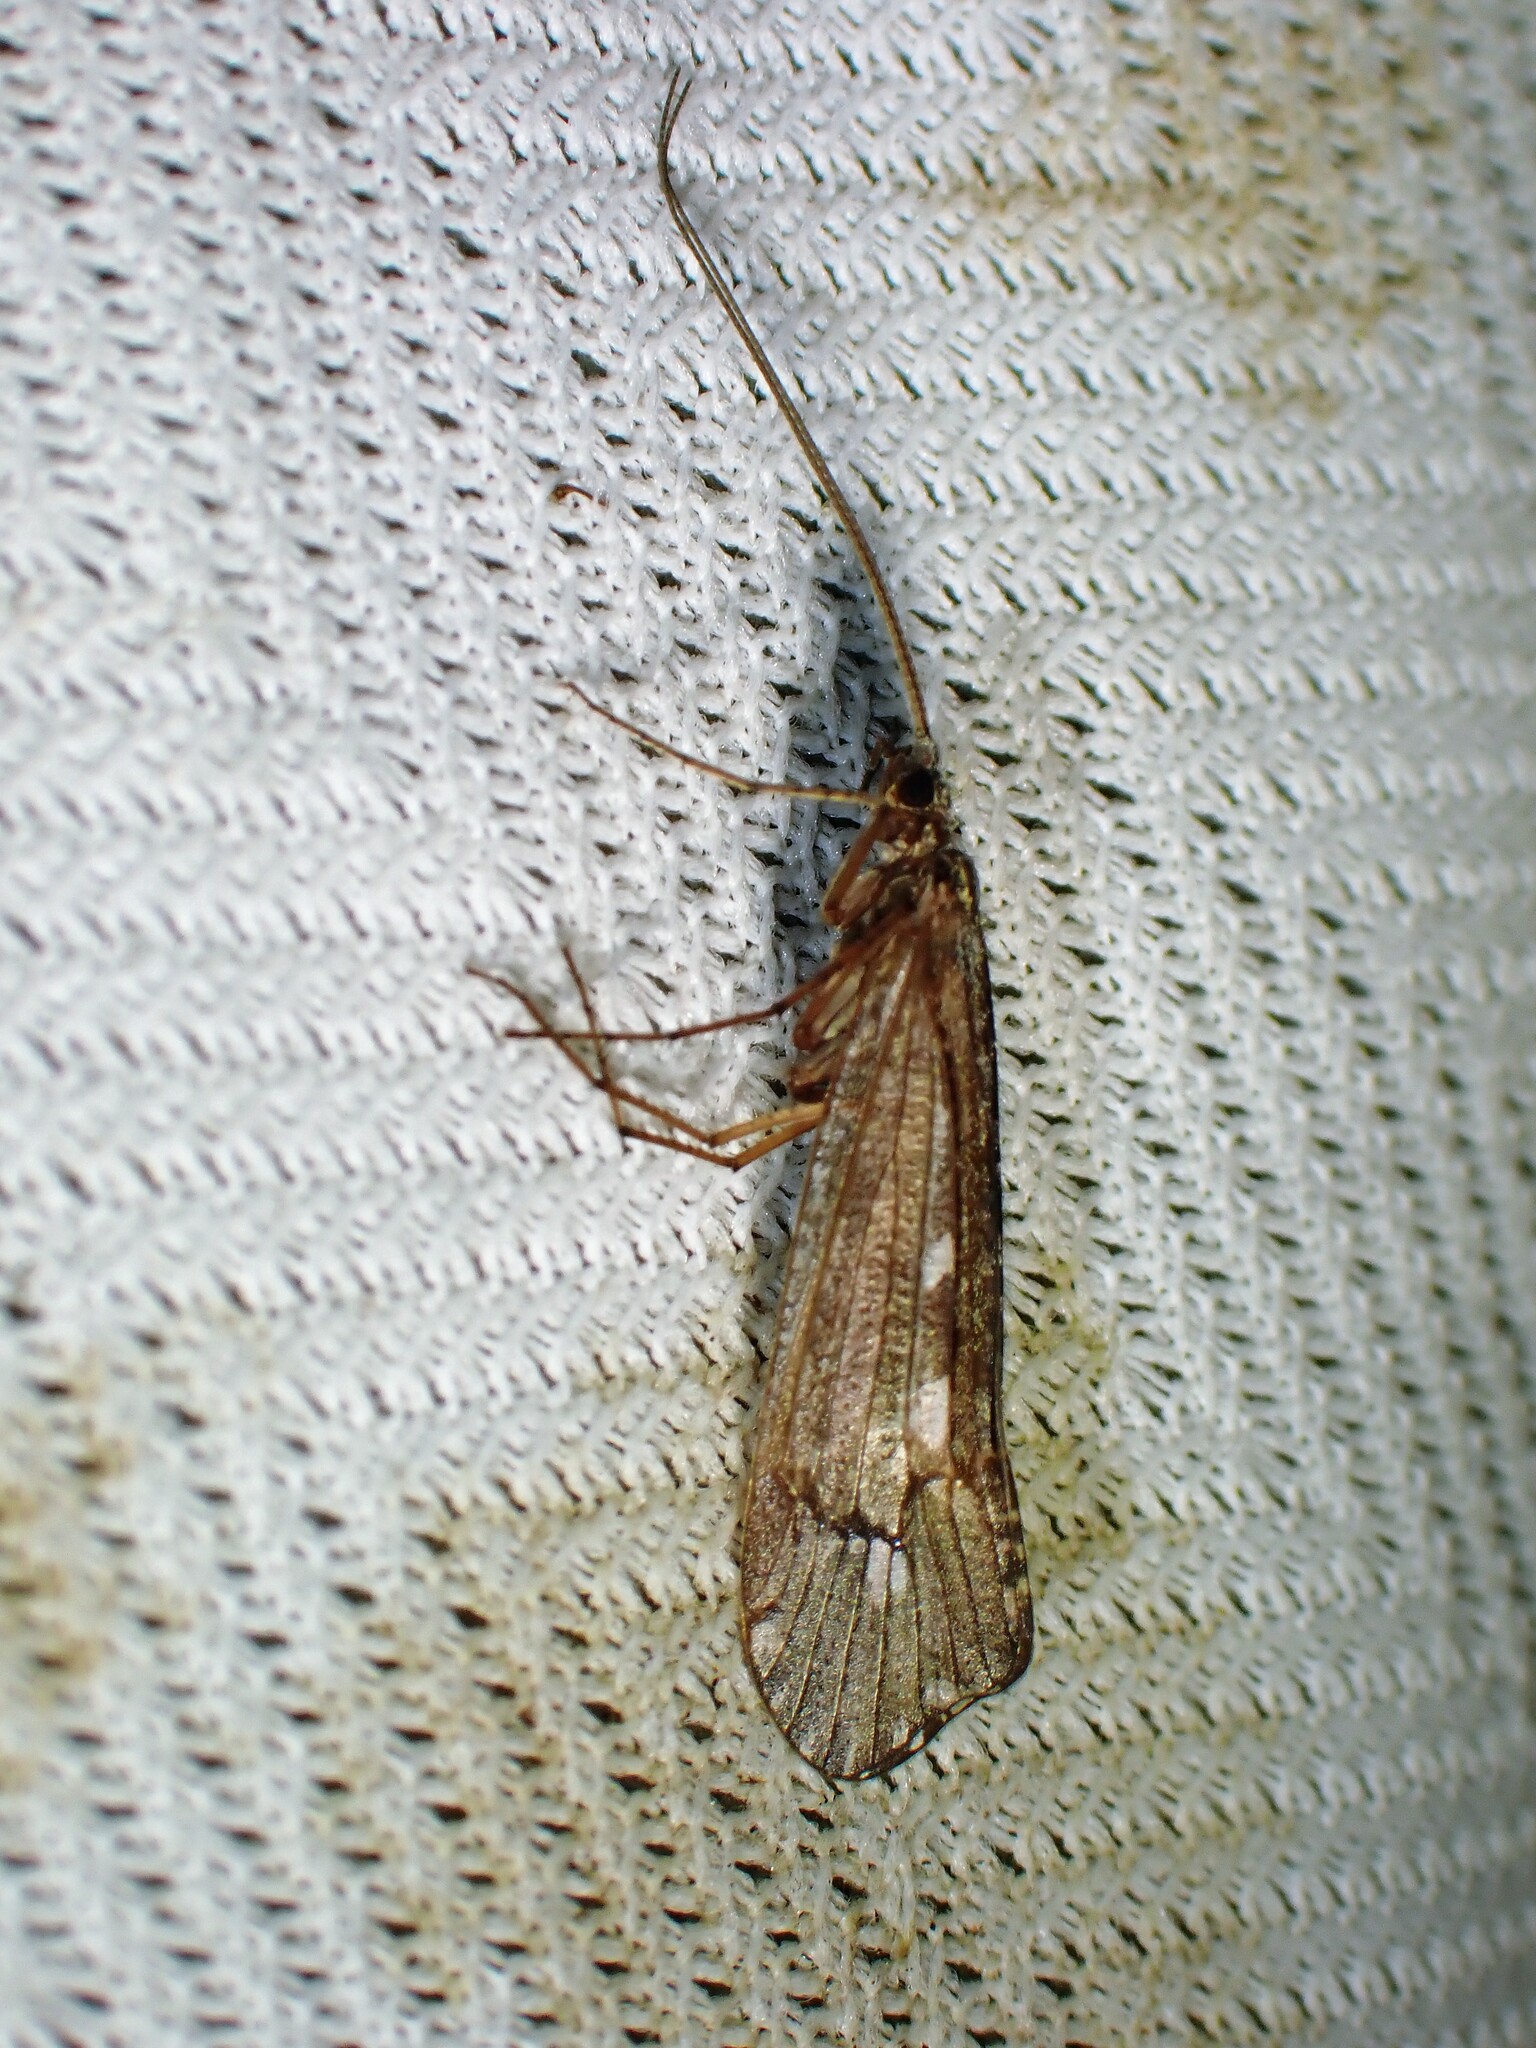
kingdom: Animalia
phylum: Arthropoda
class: Insecta
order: Trichoptera
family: Limnephilidae
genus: Glyphopsyche
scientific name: Glyphopsyche irrorata
